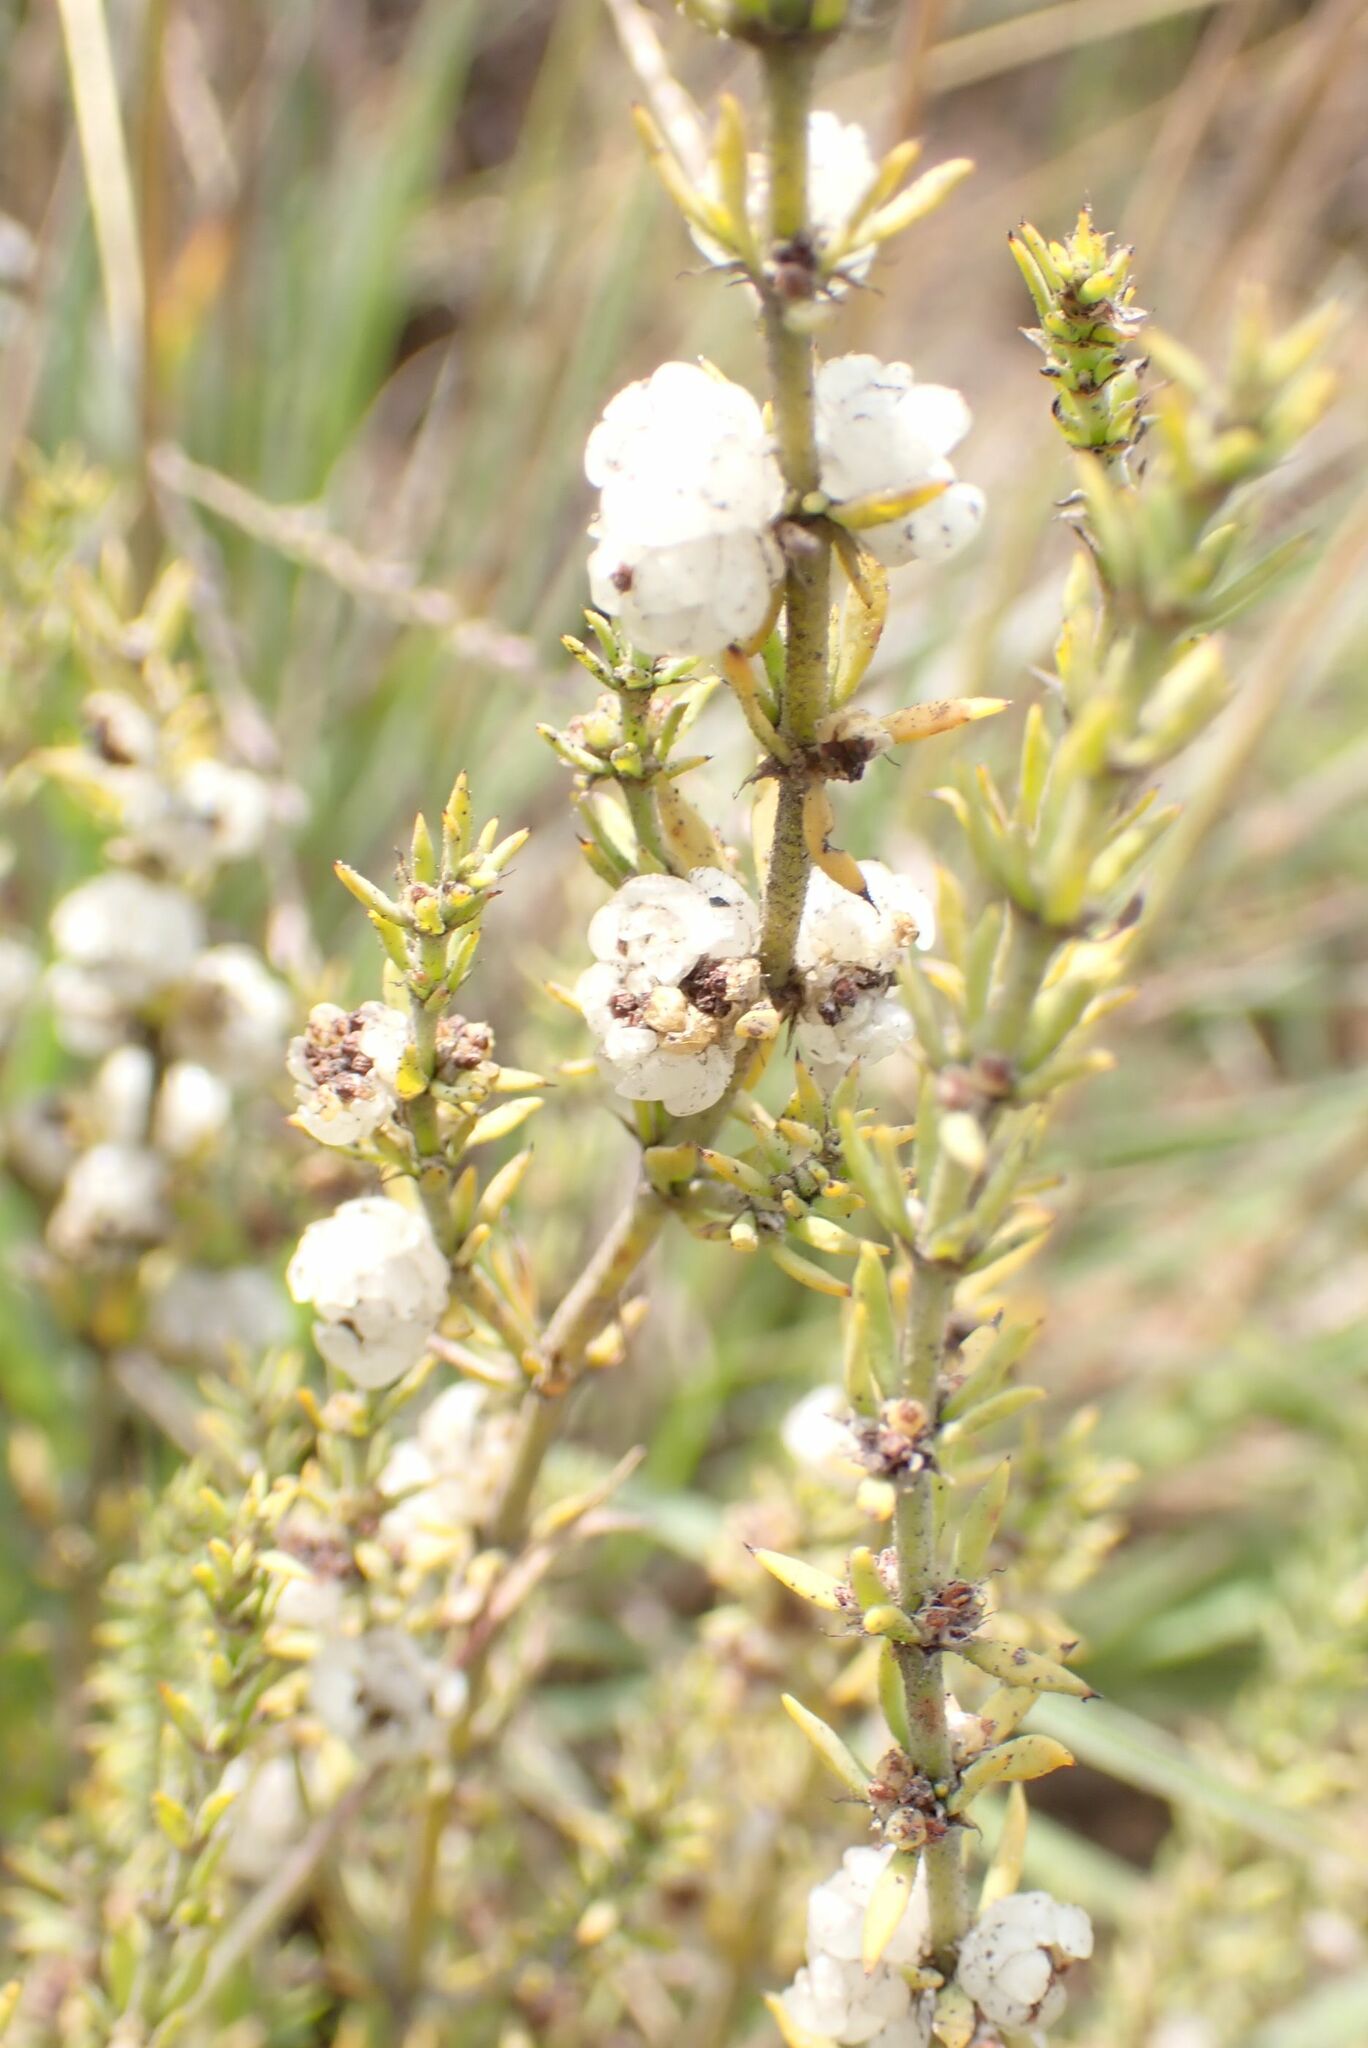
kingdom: Plantae
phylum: Tracheophyta
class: Magnoliopsida
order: Caryophyllales
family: Caryophyllaceae
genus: Pollichia
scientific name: Pollichia campestris
